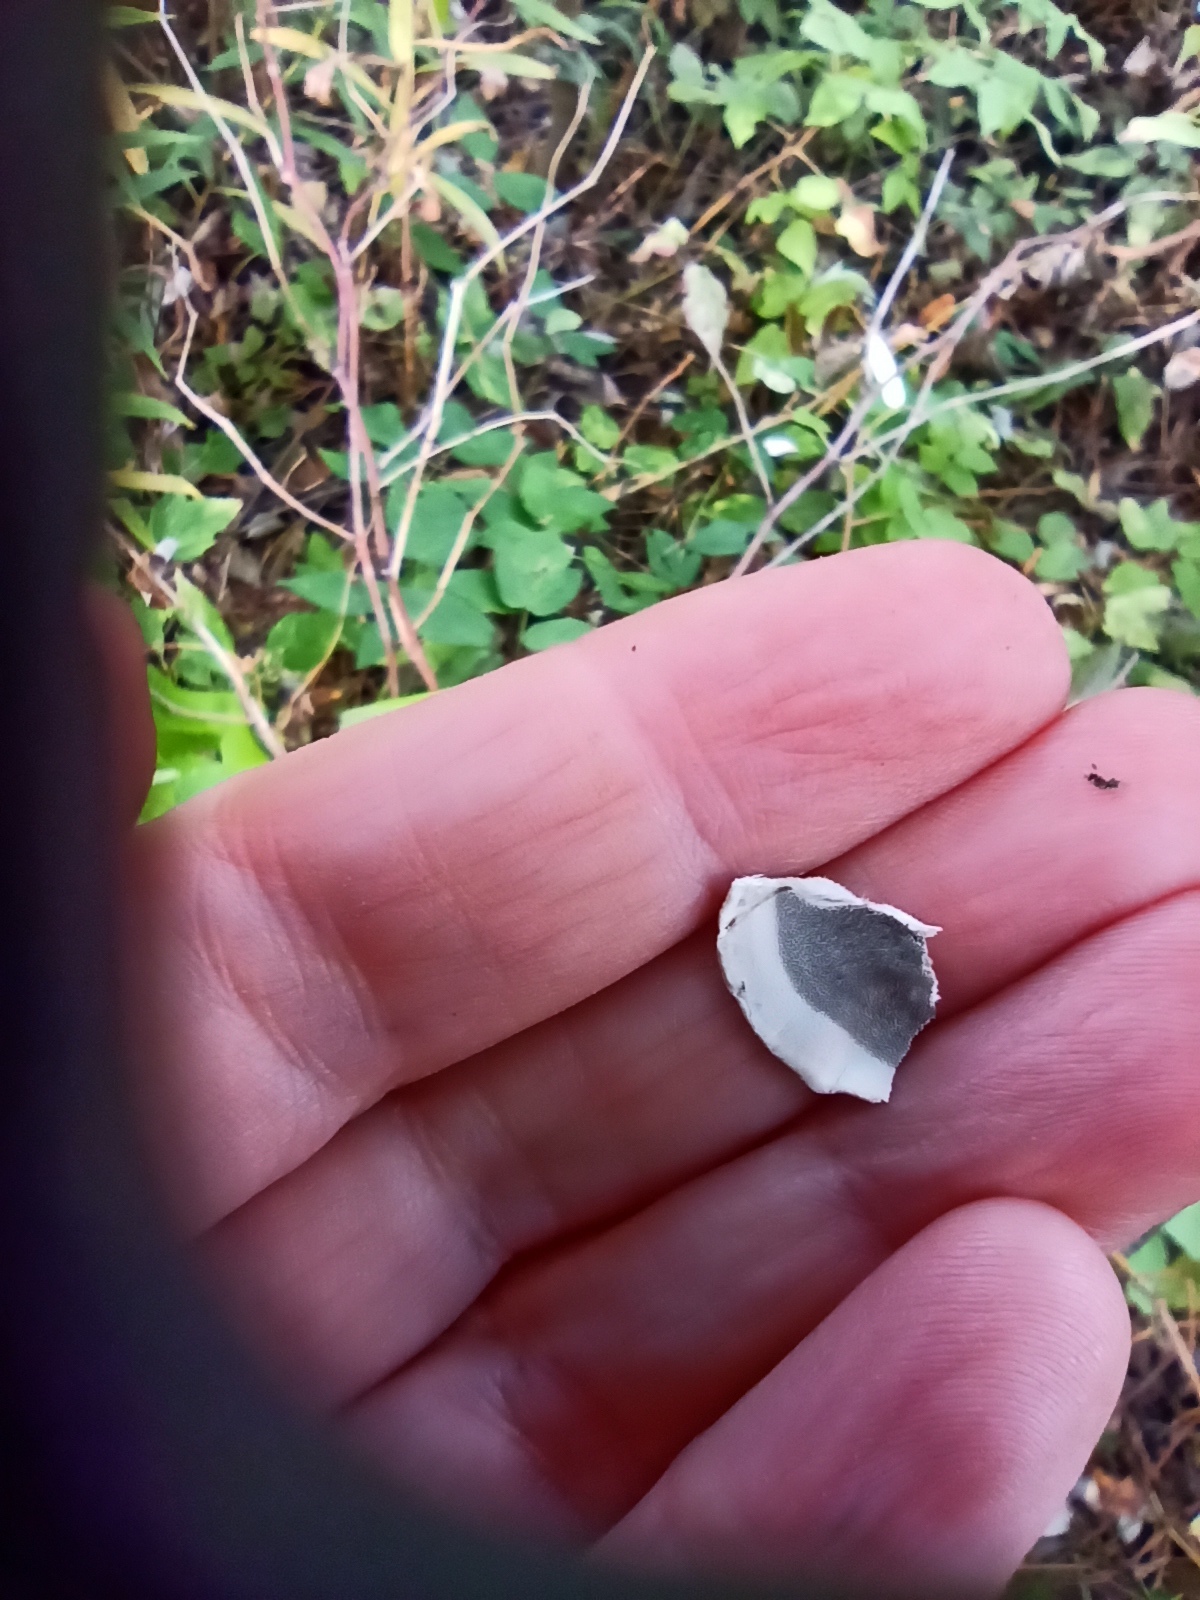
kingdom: Fungi
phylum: Basidiomycota
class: Agaricomycetes
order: Polyporales
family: Phanerochaetaceae
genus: Bjerkandera
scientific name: Bjerkandera adusta
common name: Smoky bracket
